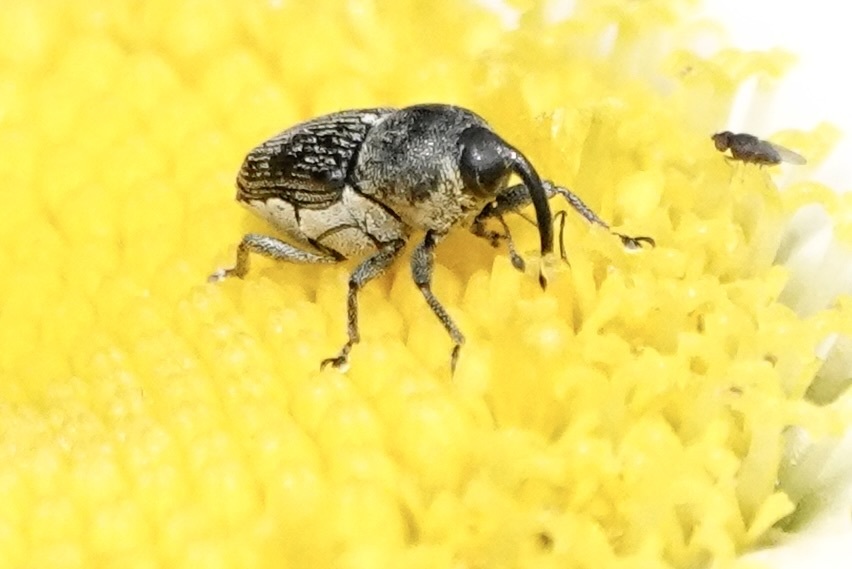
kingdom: Animalia
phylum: Arthropoda
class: Insecta
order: Coleoptera
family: Curculionidae
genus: Odontocorynus
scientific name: Odontocorynus salebrosus
